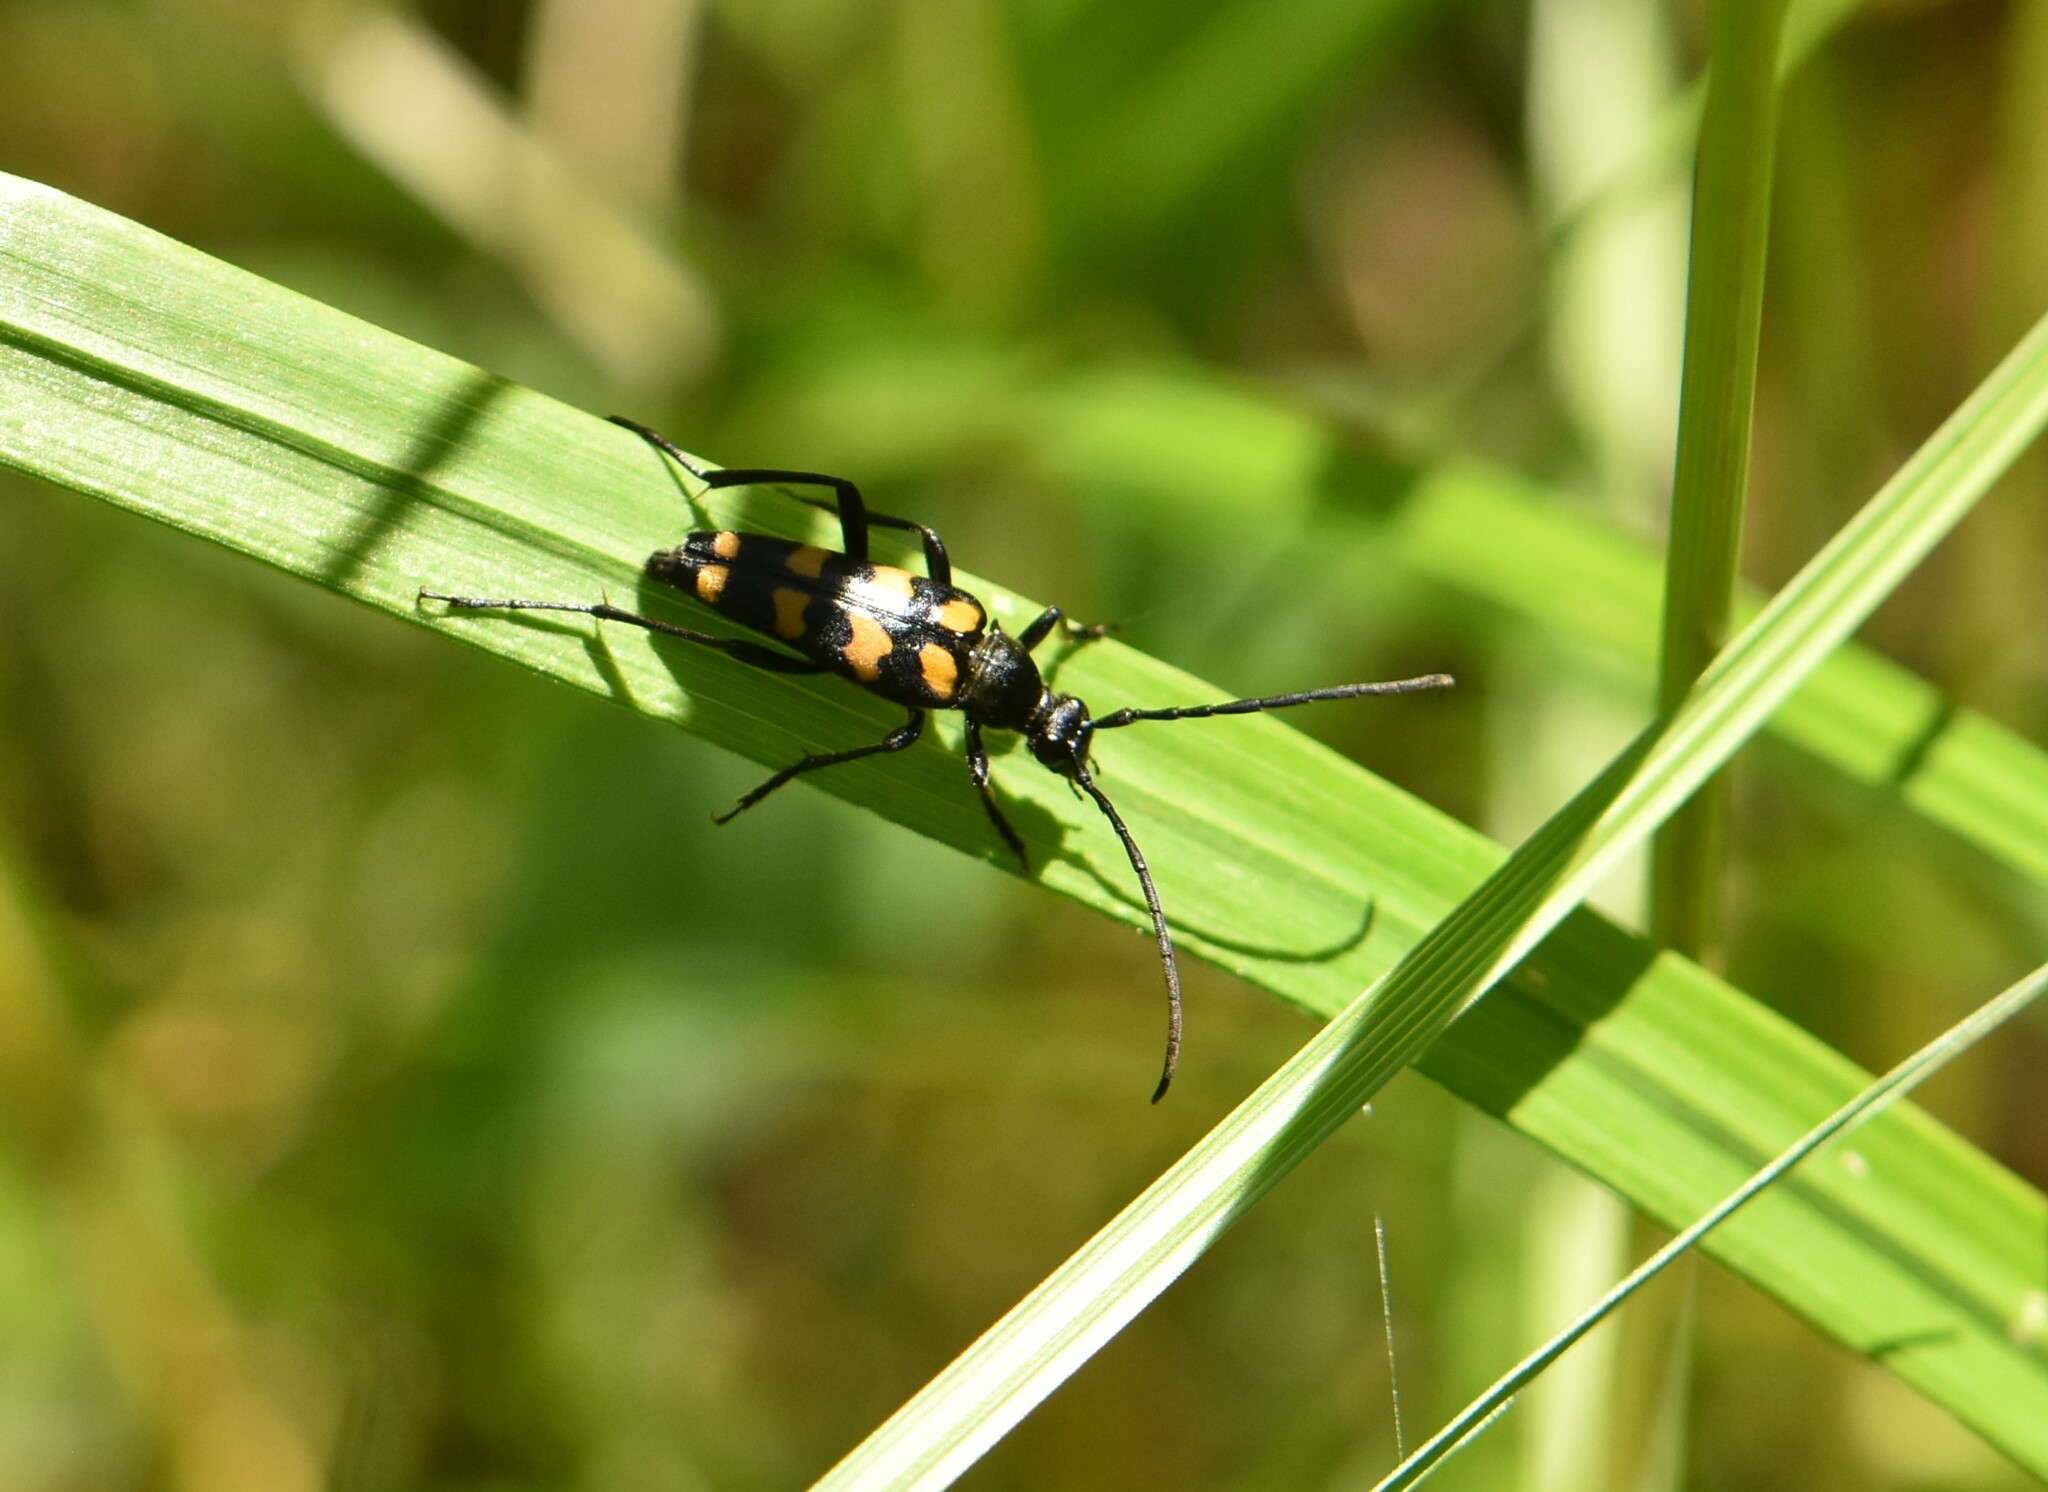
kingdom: Animalia
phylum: Arthropoda
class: Insecta
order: Coleoptera
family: Cerambycidae
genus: Leptura
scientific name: Leptura quadrifasciata
